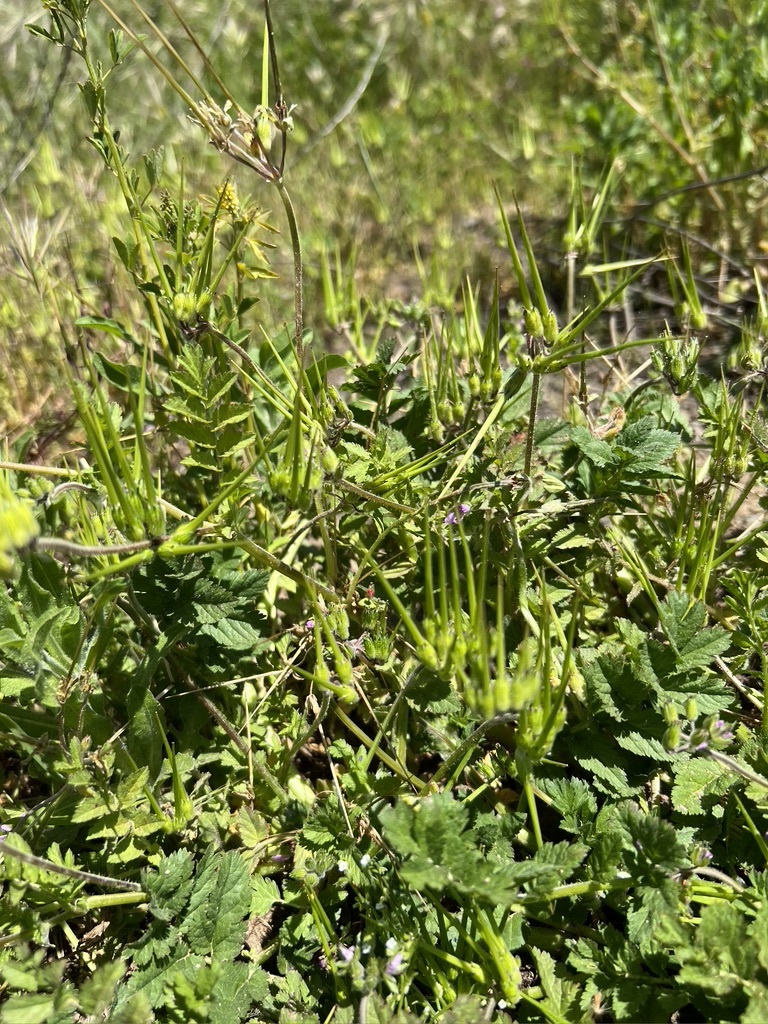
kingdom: Plantae
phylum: Tracheophyta
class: Magnoliopsida
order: Geraniales
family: Geraniaceae
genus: Erodium
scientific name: Erodium moschatum
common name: Musk stork's-bill
